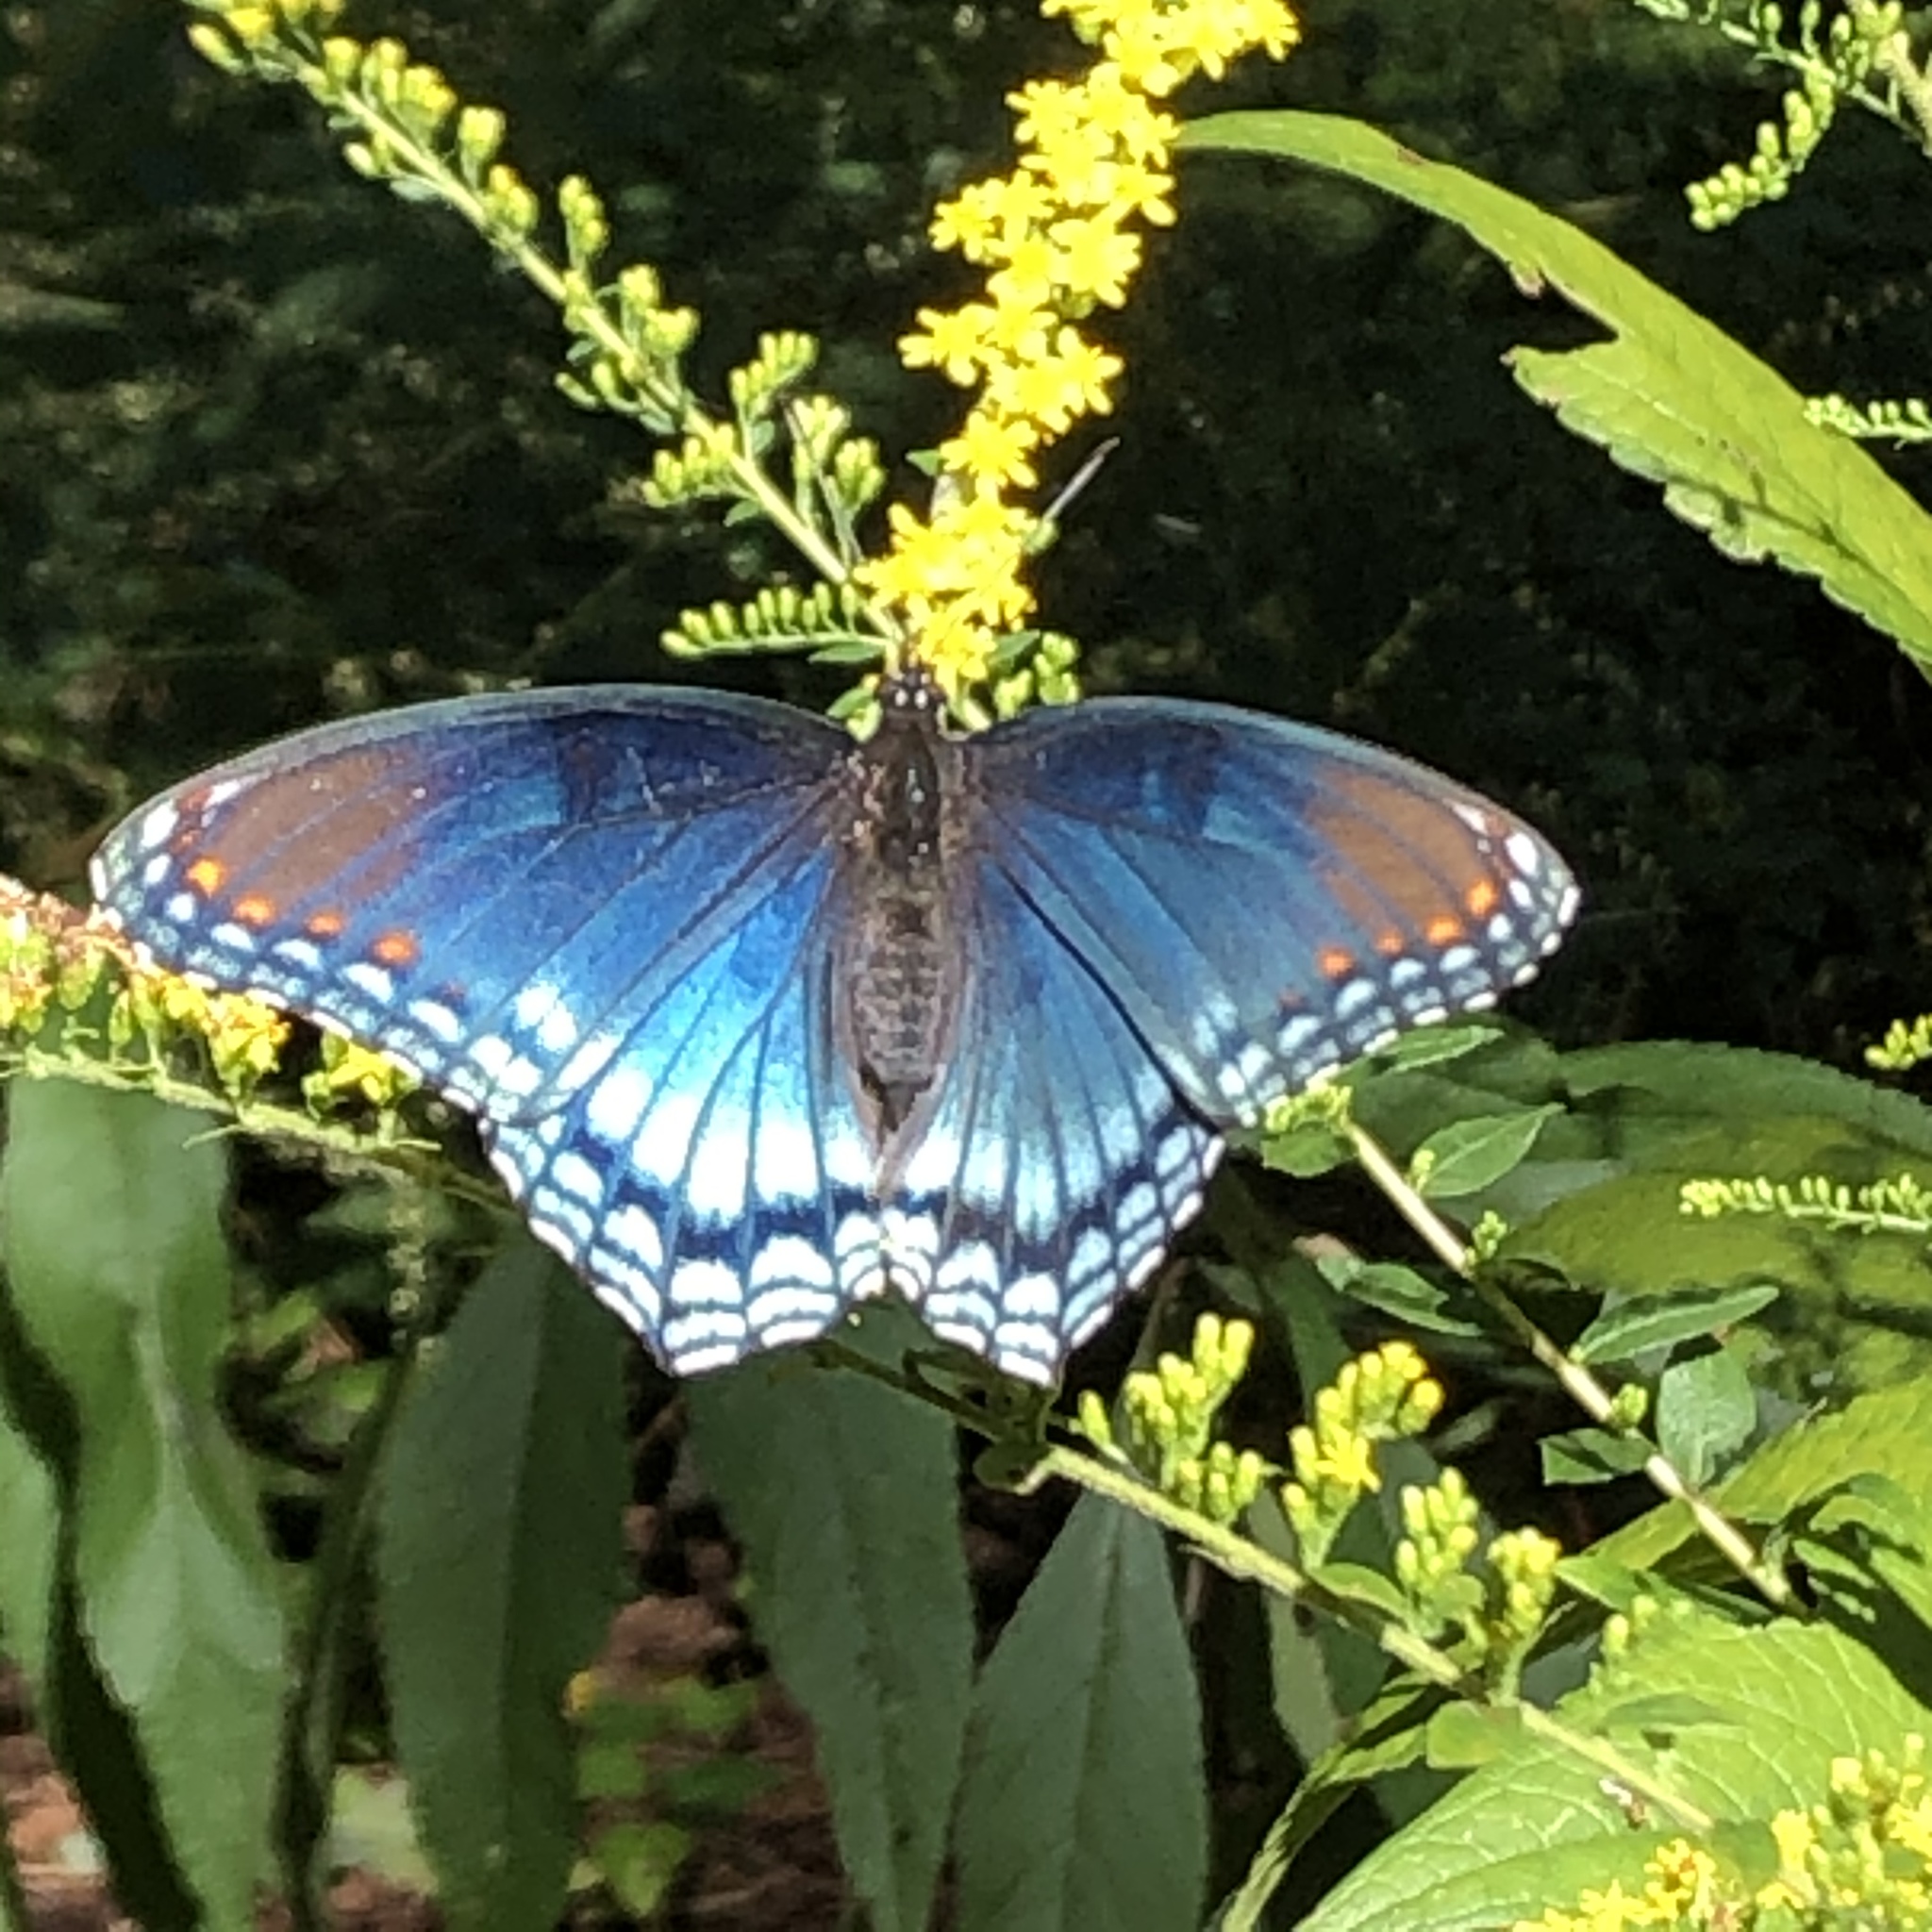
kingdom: Animalia
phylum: Arthropoda
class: Insecta
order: Lepidoptera
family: Nymphalidae
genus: Limenitis
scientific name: Limenitis astyanax
